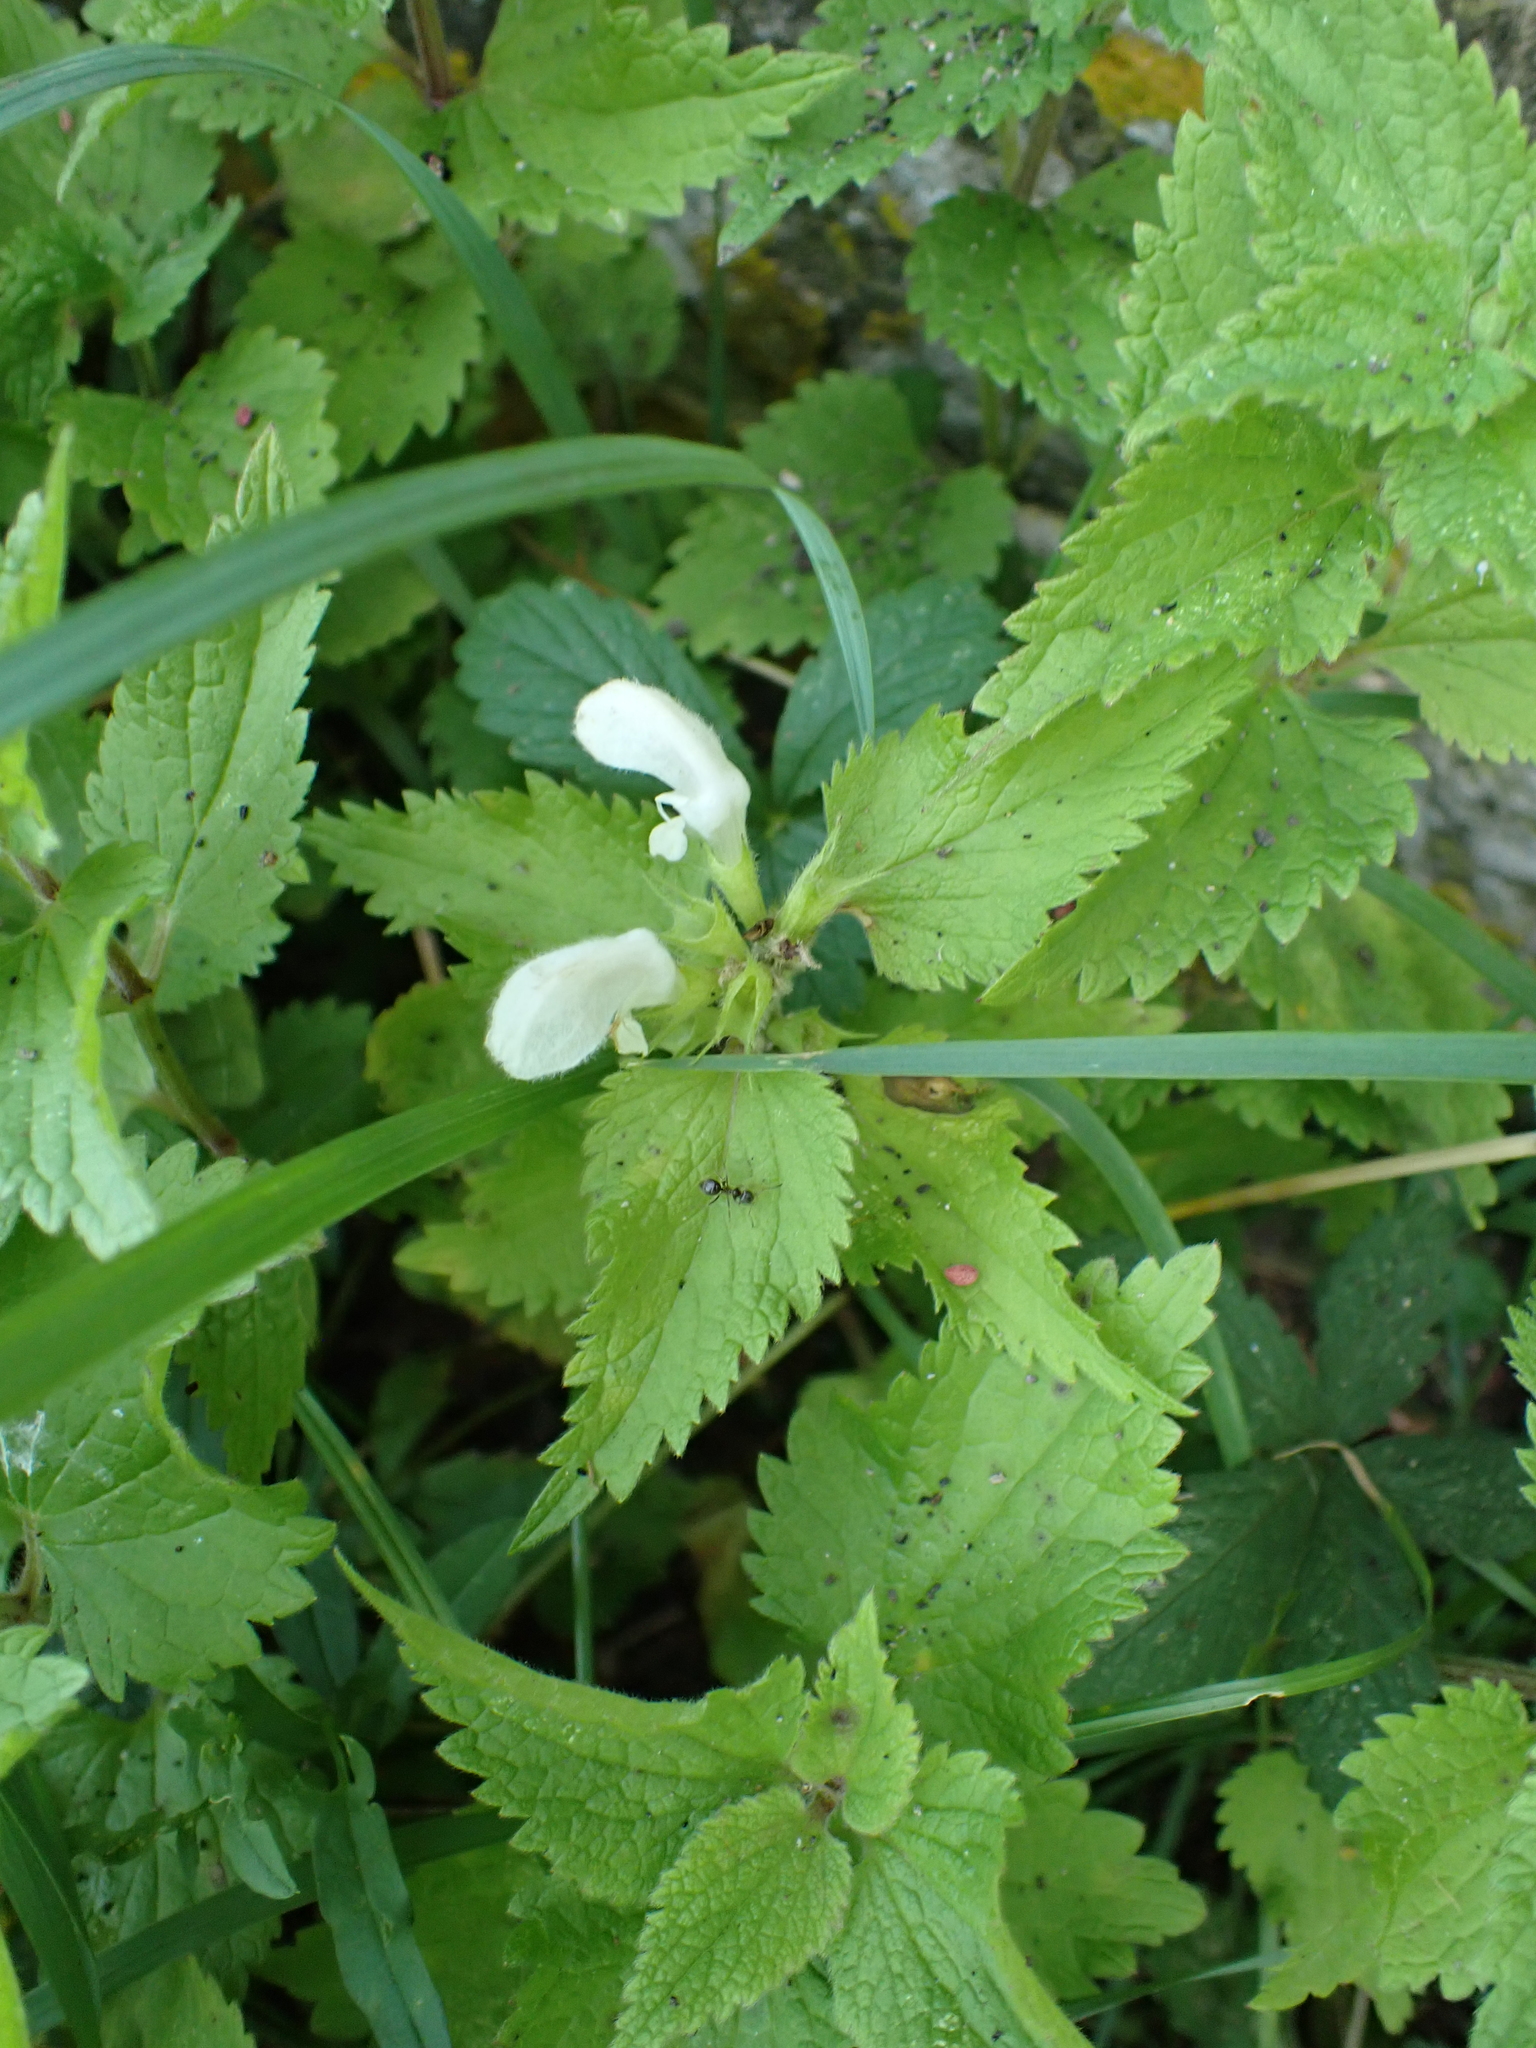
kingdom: Plantae
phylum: Tracheophyta
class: Magnoliopsida
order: Lamiales
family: Lamiaceae
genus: Lamium
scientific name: Lamium album
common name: White dead-nettle
